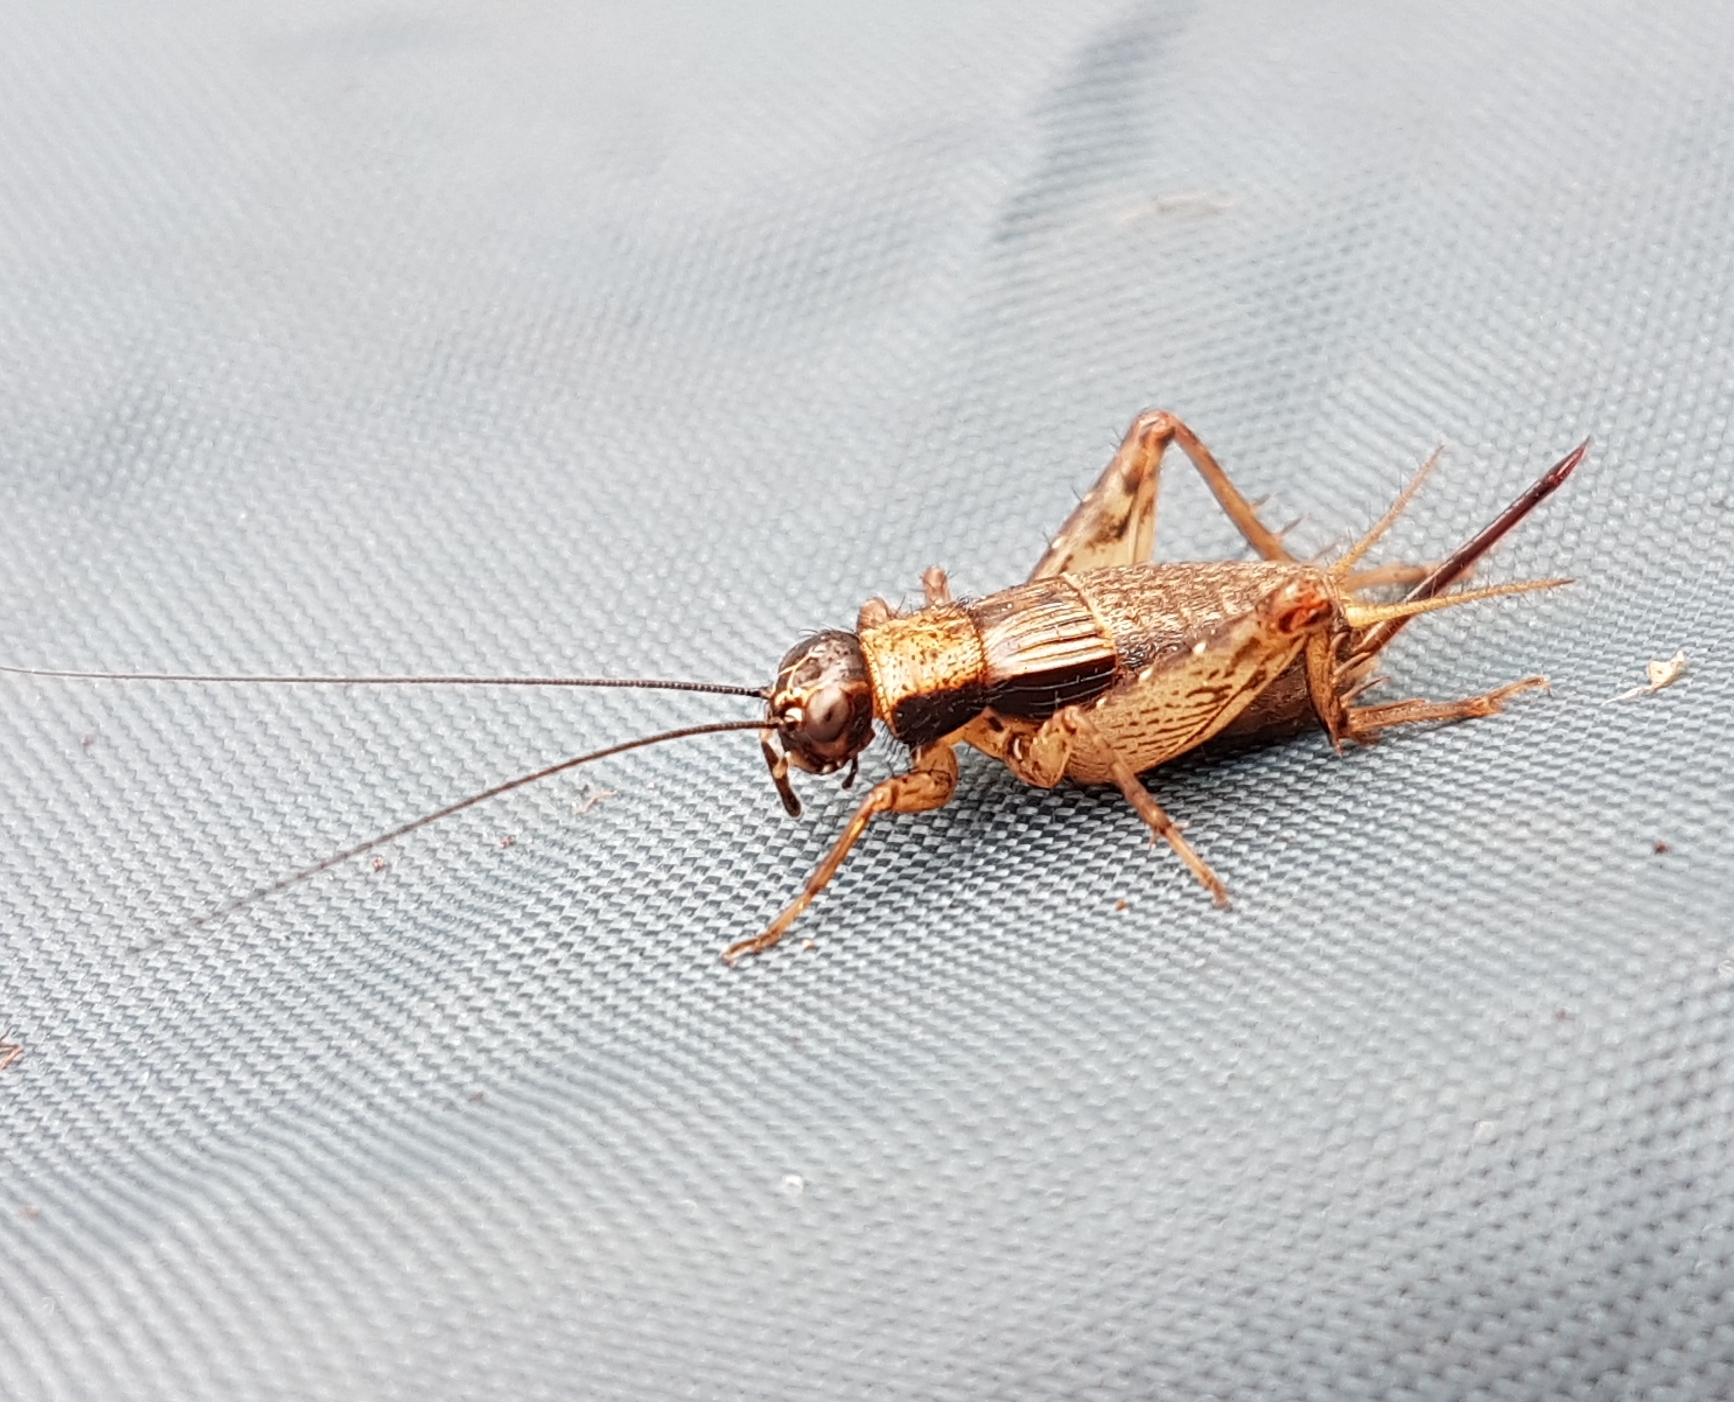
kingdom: Animalia
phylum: Arthropoda
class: Insecta
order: Orthoptera
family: Trigonidiidae
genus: Nemobius
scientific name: Nemobius sylvestris
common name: Wood-cricket
